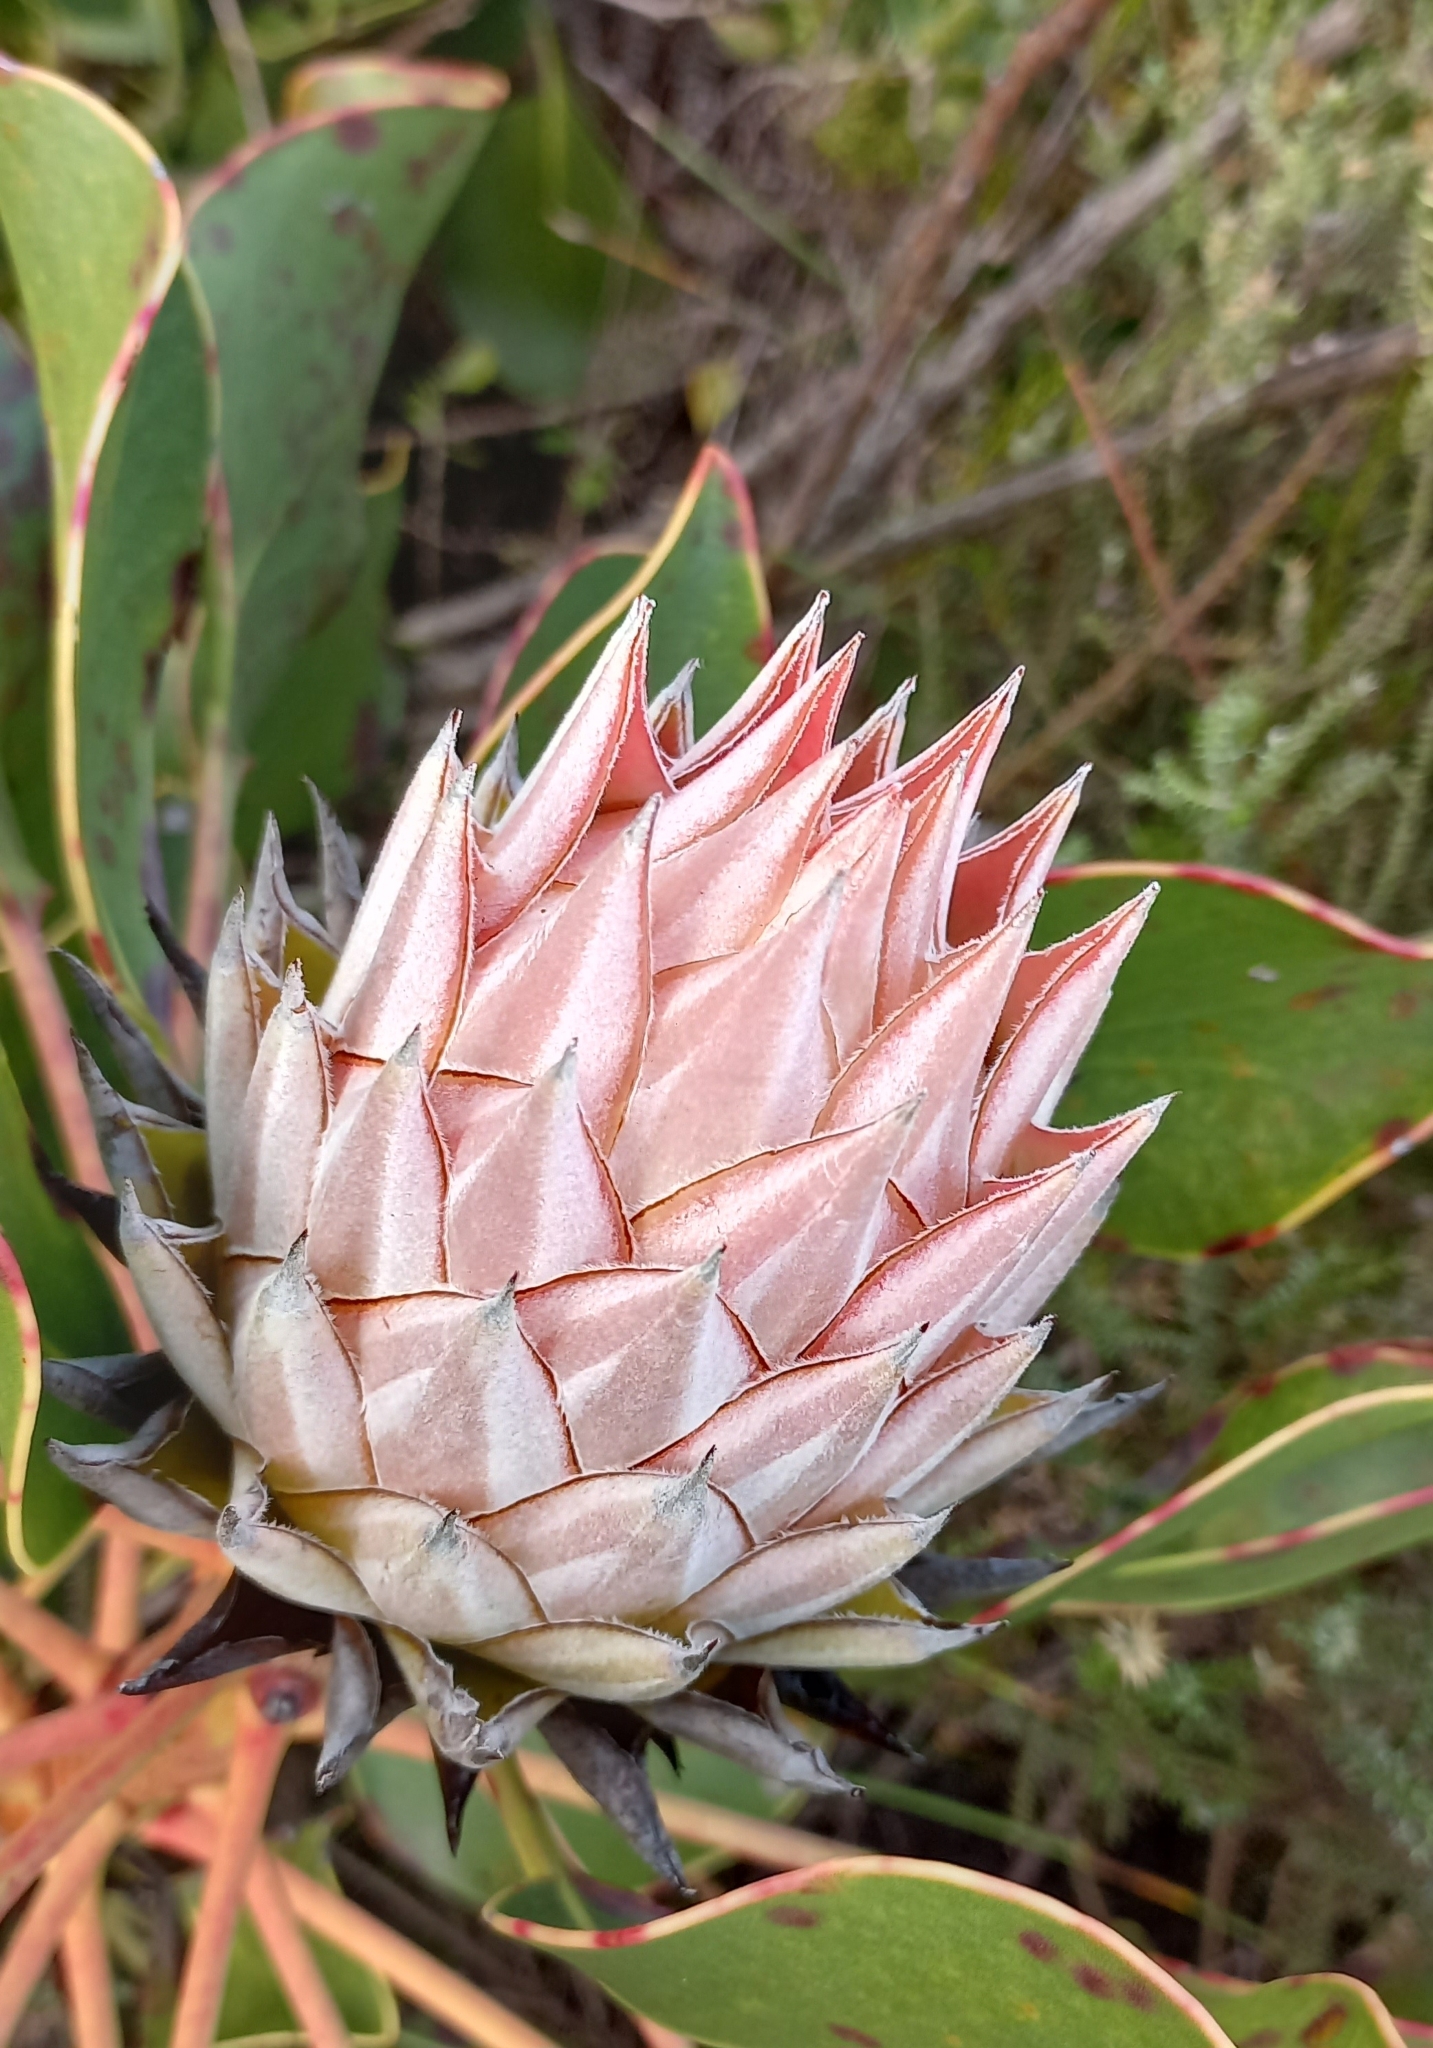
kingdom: Plantae
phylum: Tracheophyta
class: Magnoliopsida
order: Proteales
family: Proteaceae
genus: Protea
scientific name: Protea cynaroides
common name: King protea
